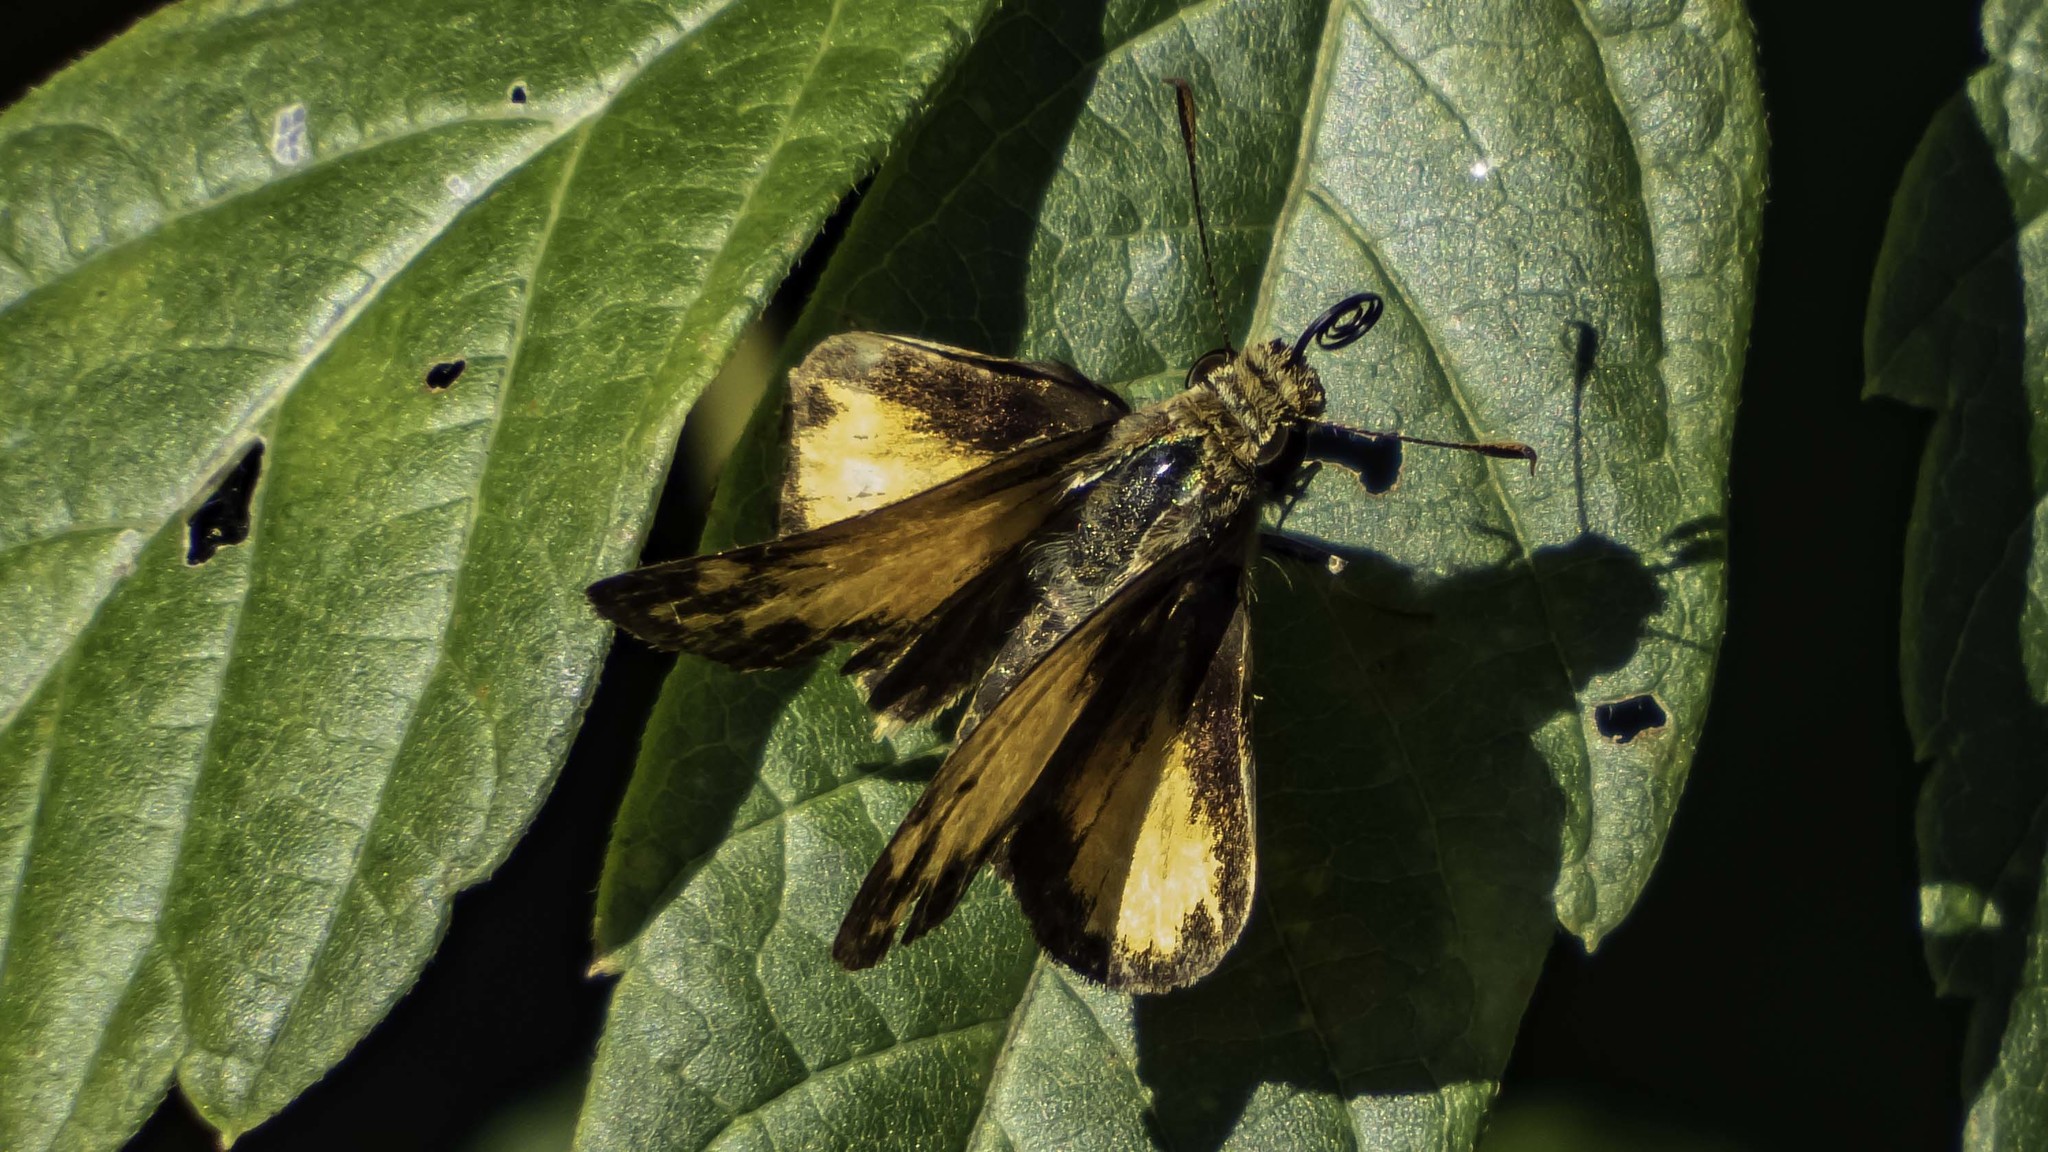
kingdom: Animalia
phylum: Arthropoda
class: Insecta
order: Lepidoptera
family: Hesperiidae
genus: Lon
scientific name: Lon zabulon
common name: Zabulon skipper
